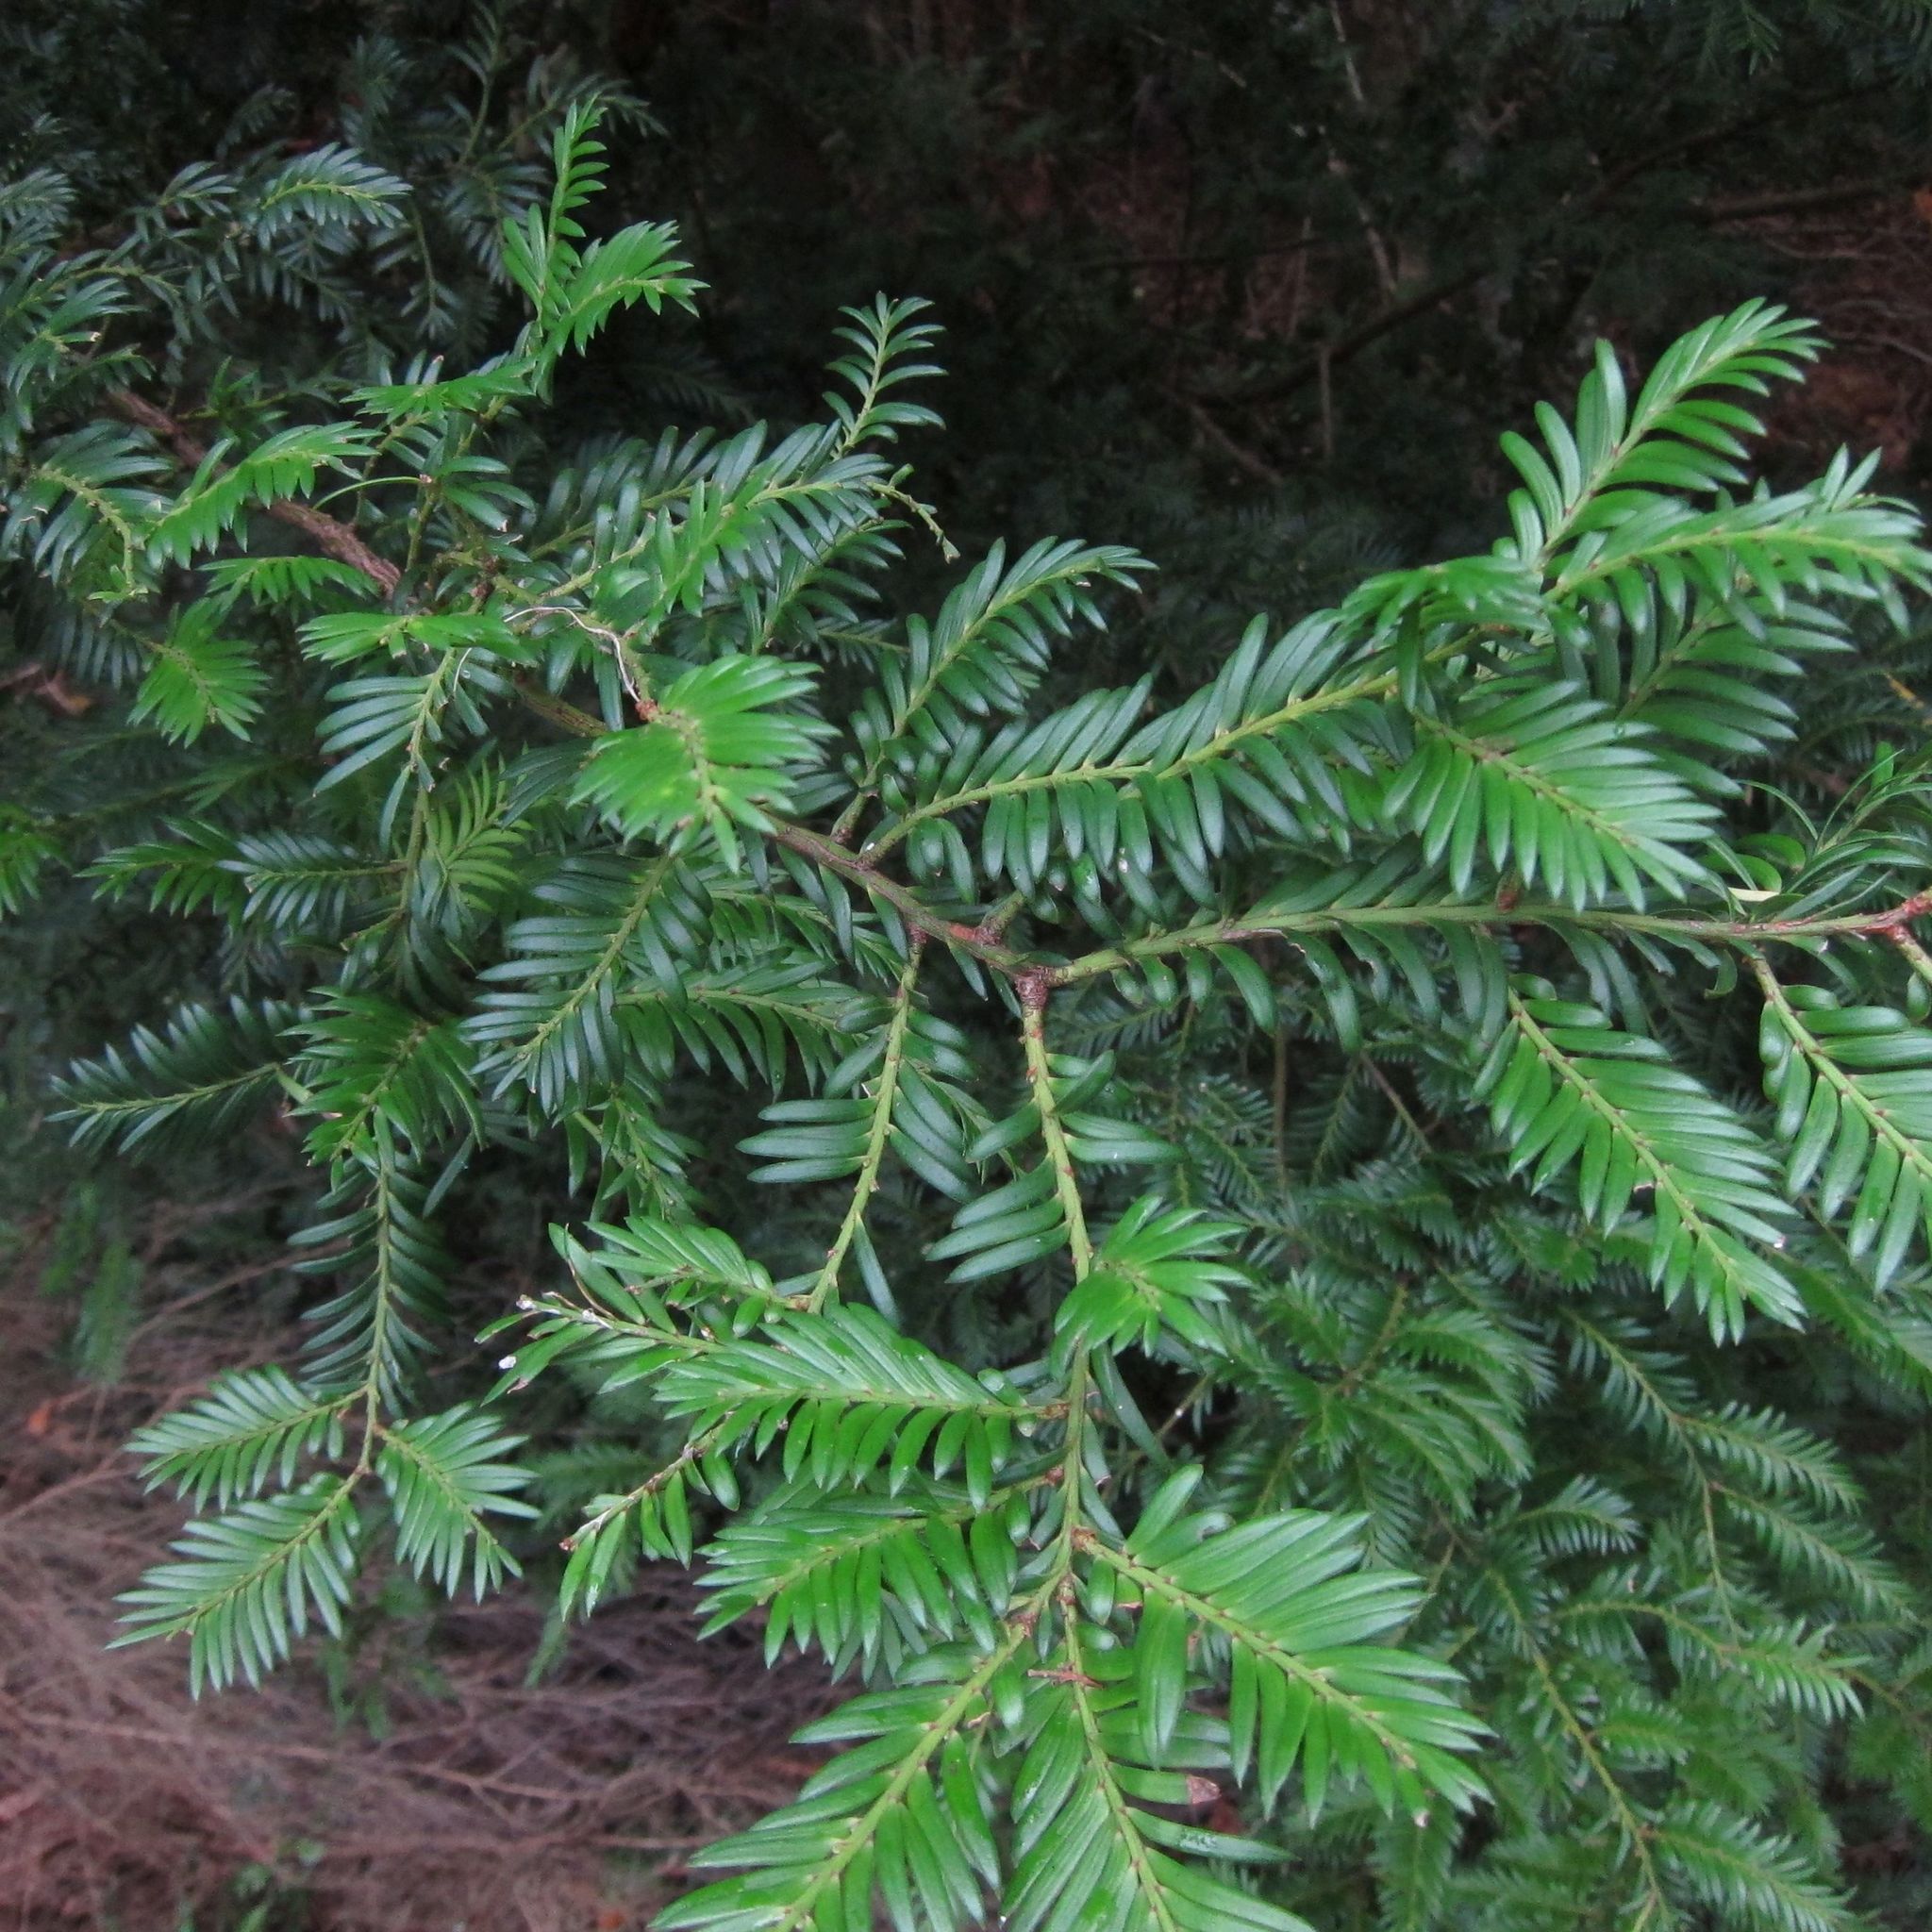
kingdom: Plantae
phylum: Tracheophyta
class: Pinopsida
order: Pinales
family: Taxaceae
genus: Taxus
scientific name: Taxus baccata
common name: Yew
